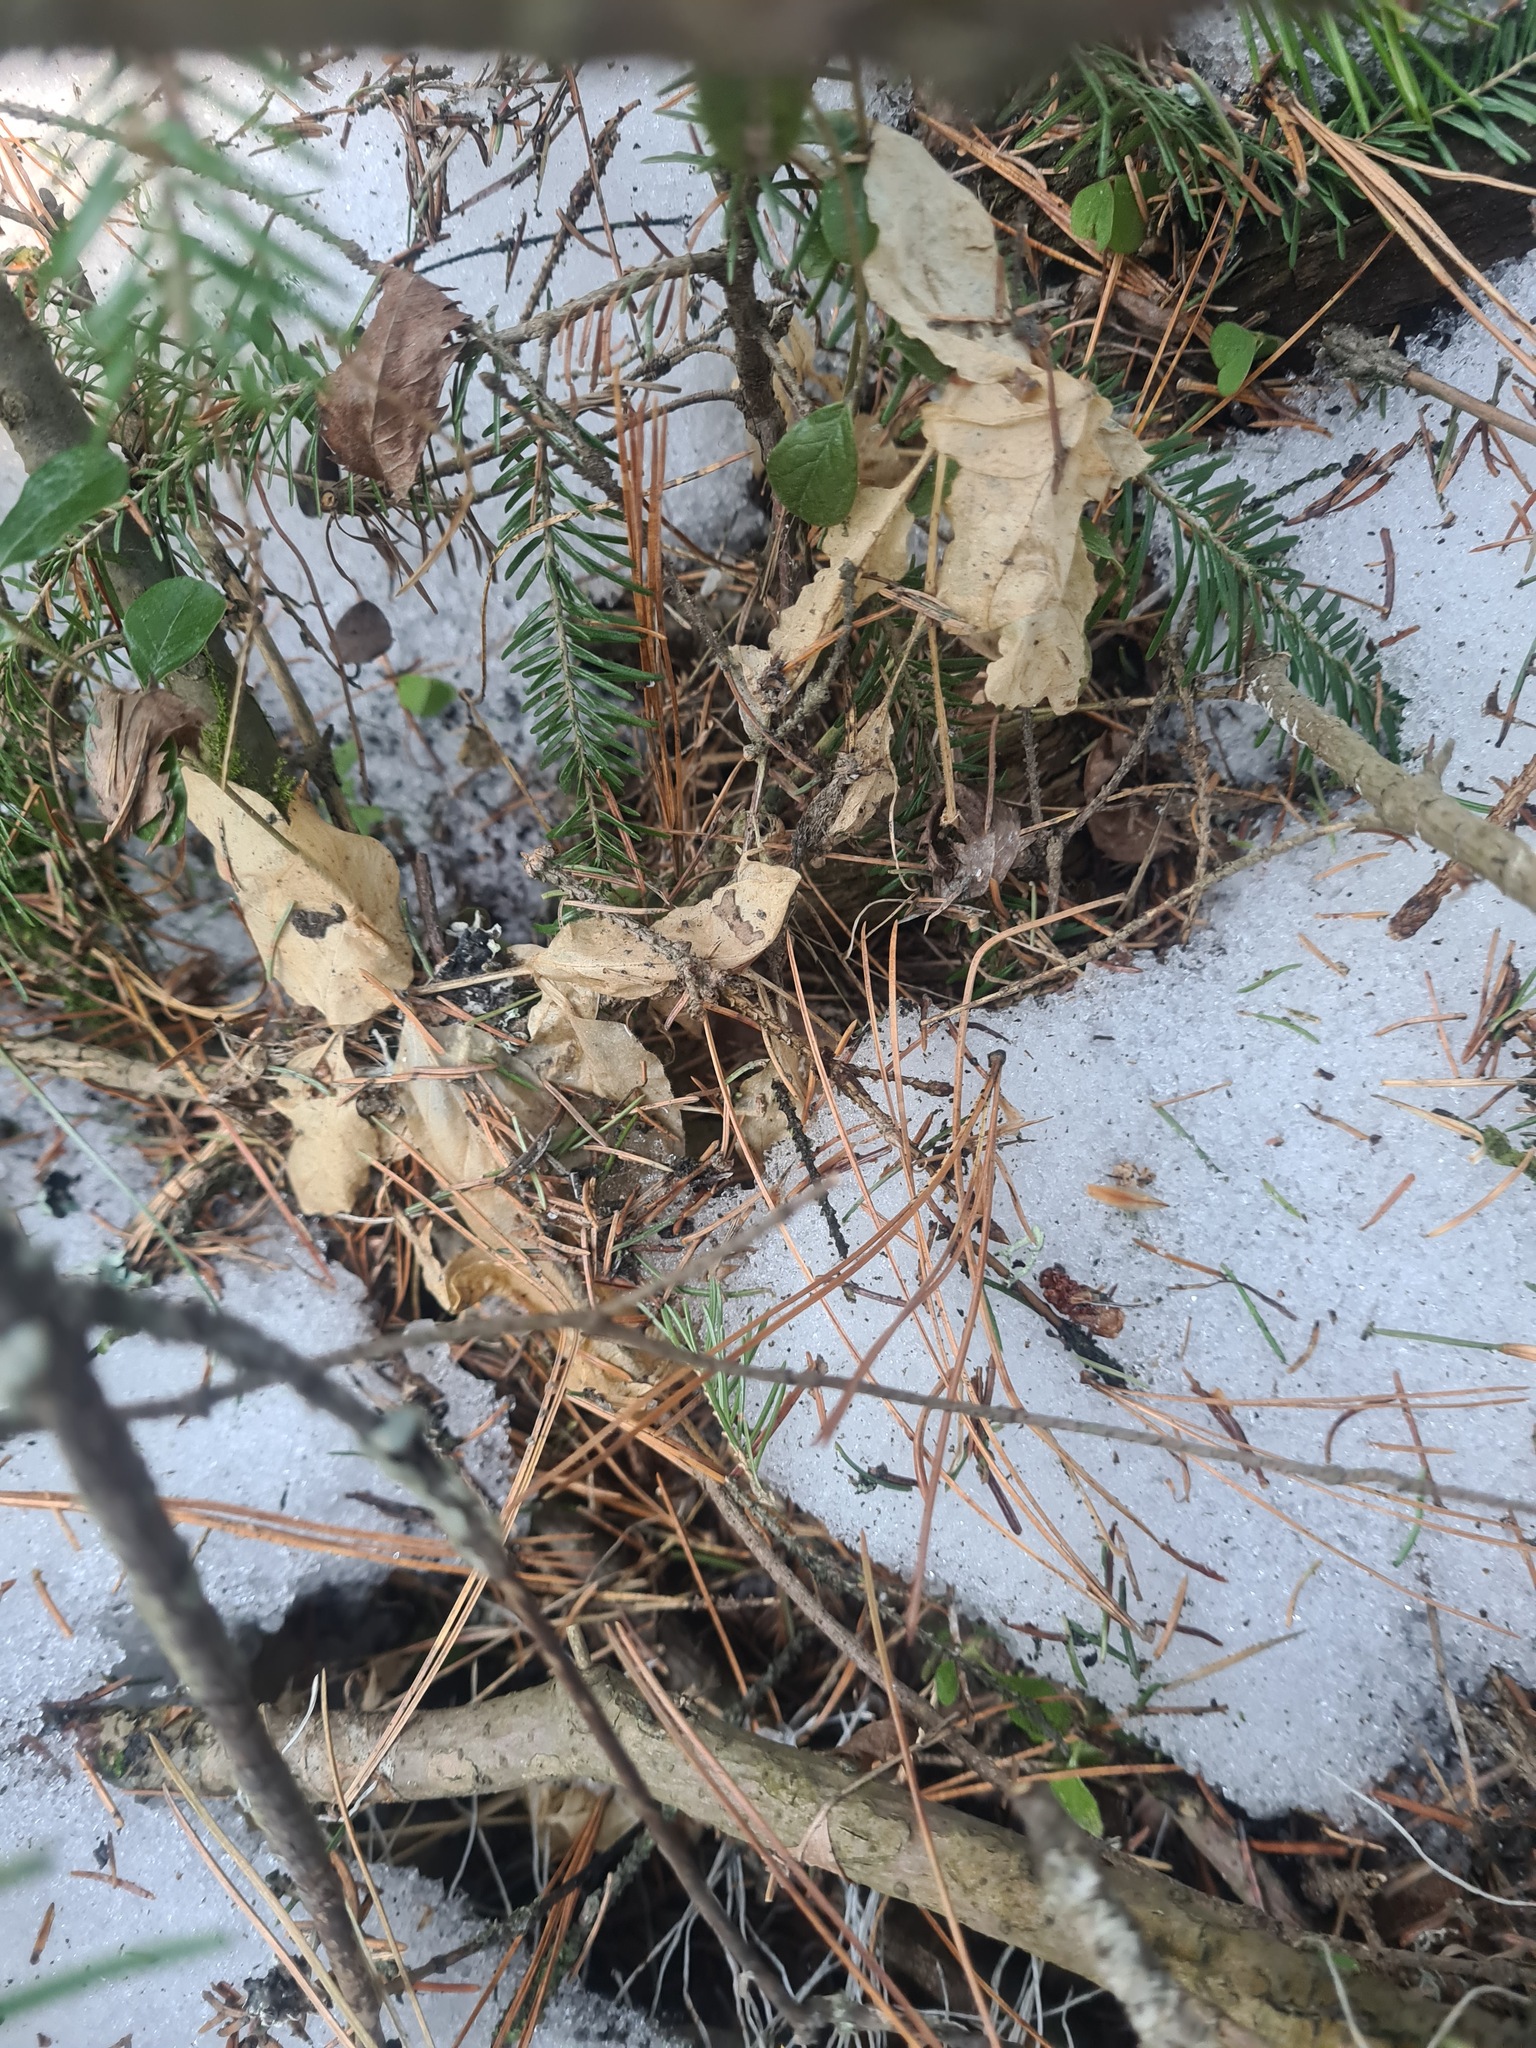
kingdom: Plantae
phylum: Tracheophyta
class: Magnoliopsida
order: Caryophyllales
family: Caryophyllaceae
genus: Stellaria
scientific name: Stellaria bungeana
